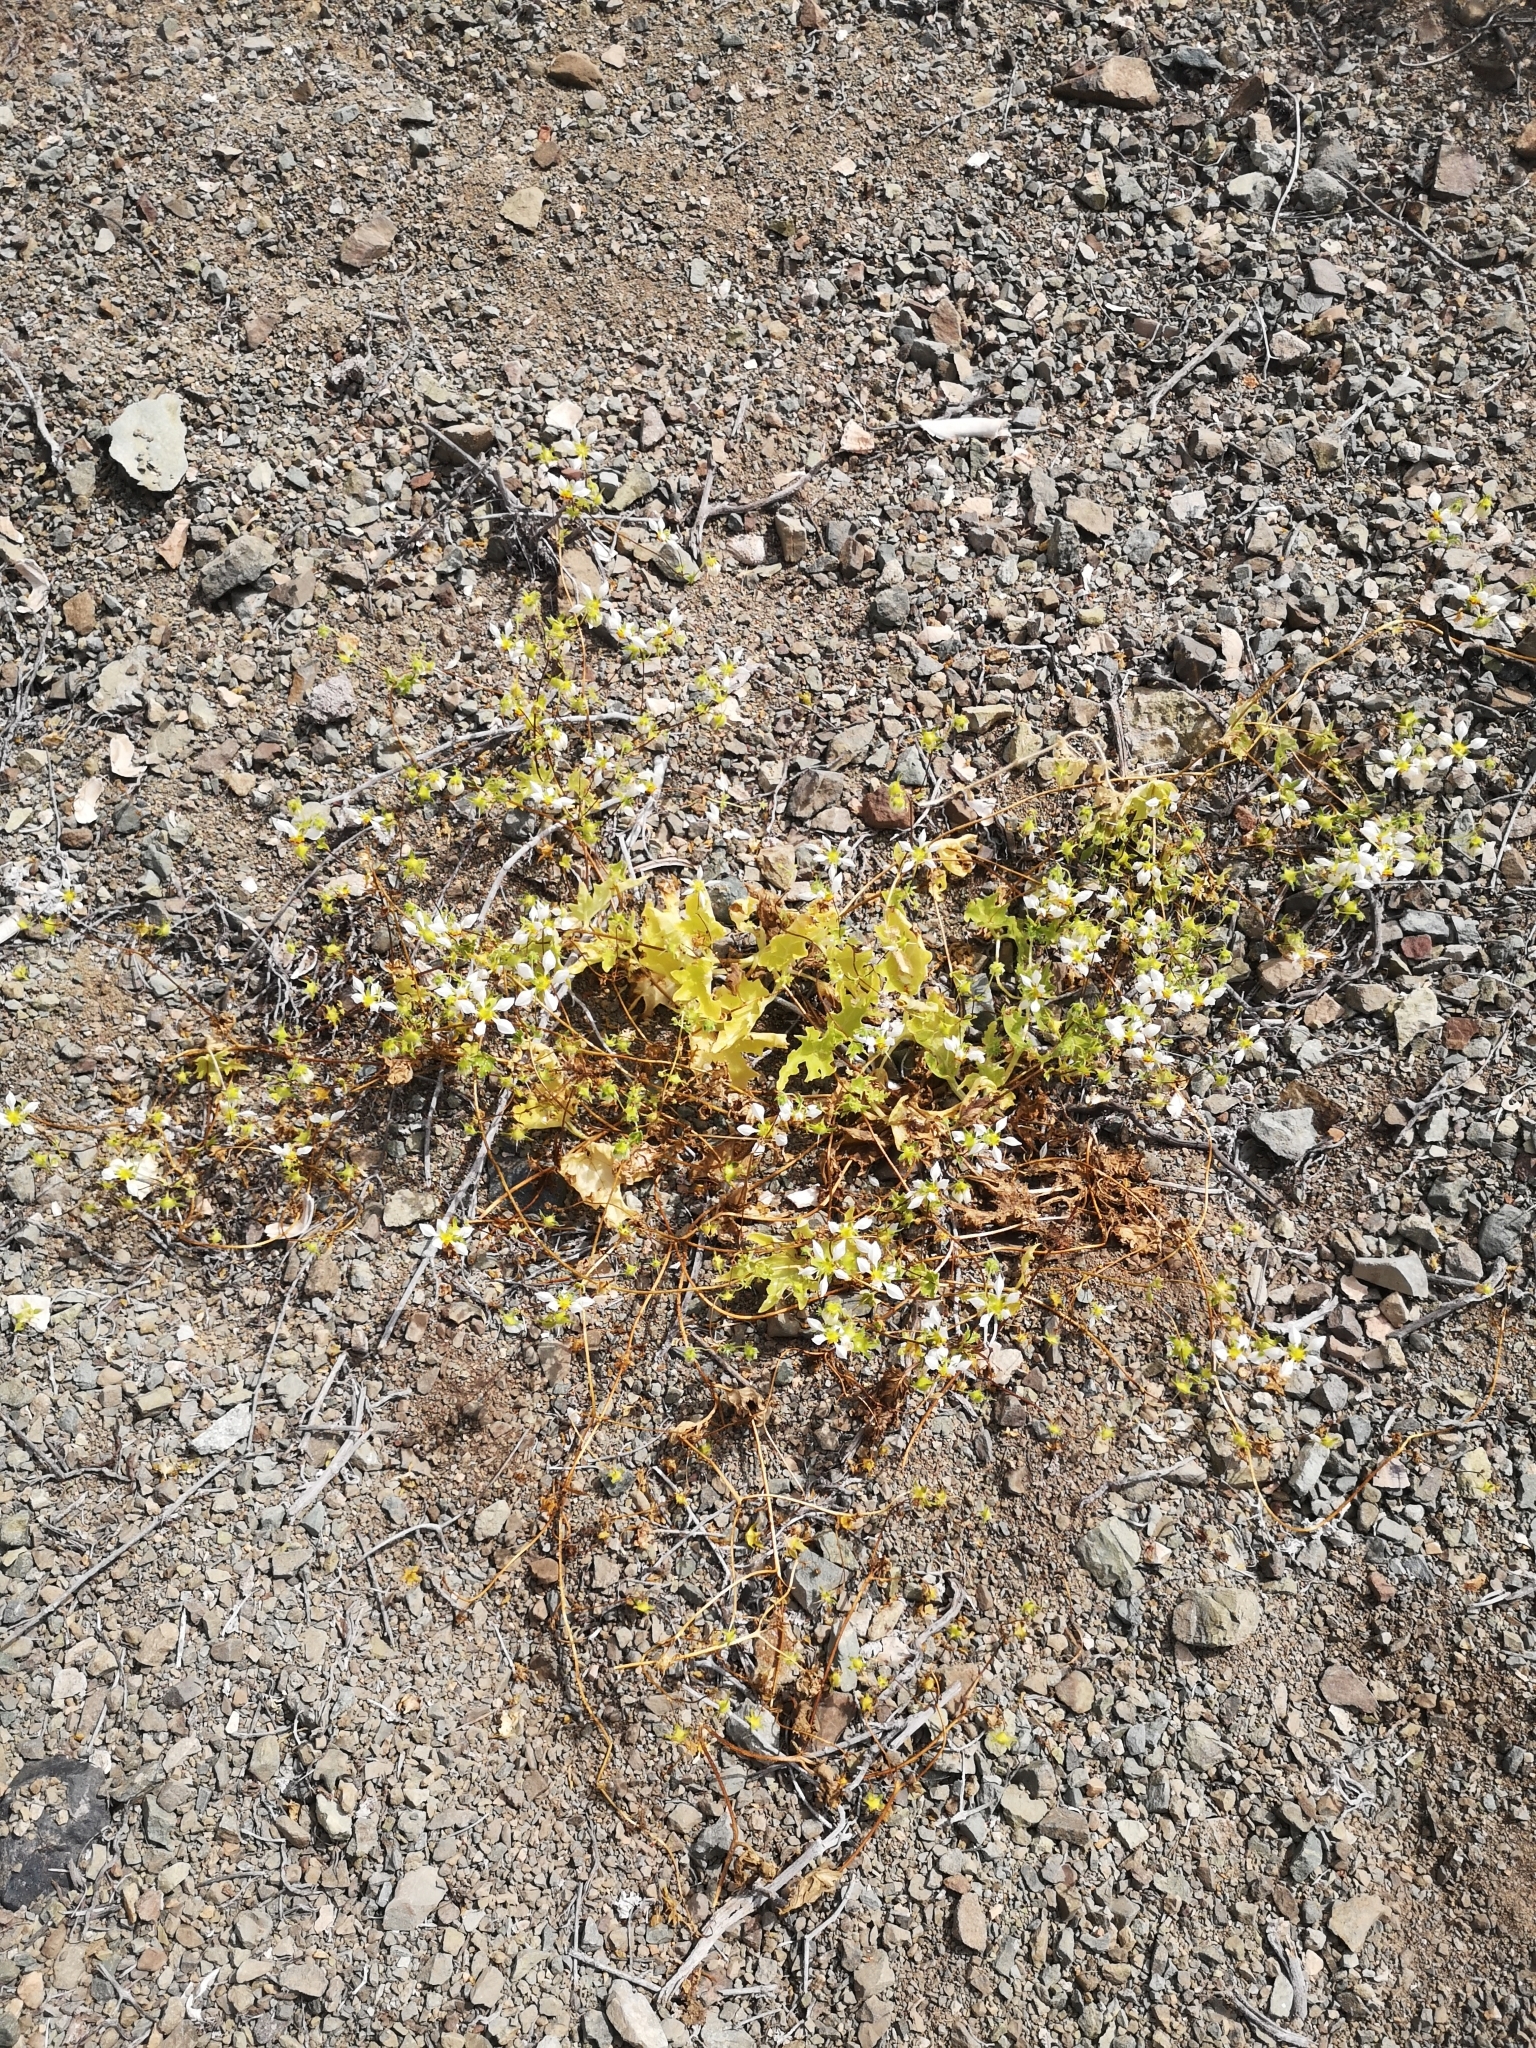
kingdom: Plantae
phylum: Tracheophyta
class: Magnoliopsida
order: Cornales
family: Loasaceae
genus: Loasa
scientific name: Loasa elongata
